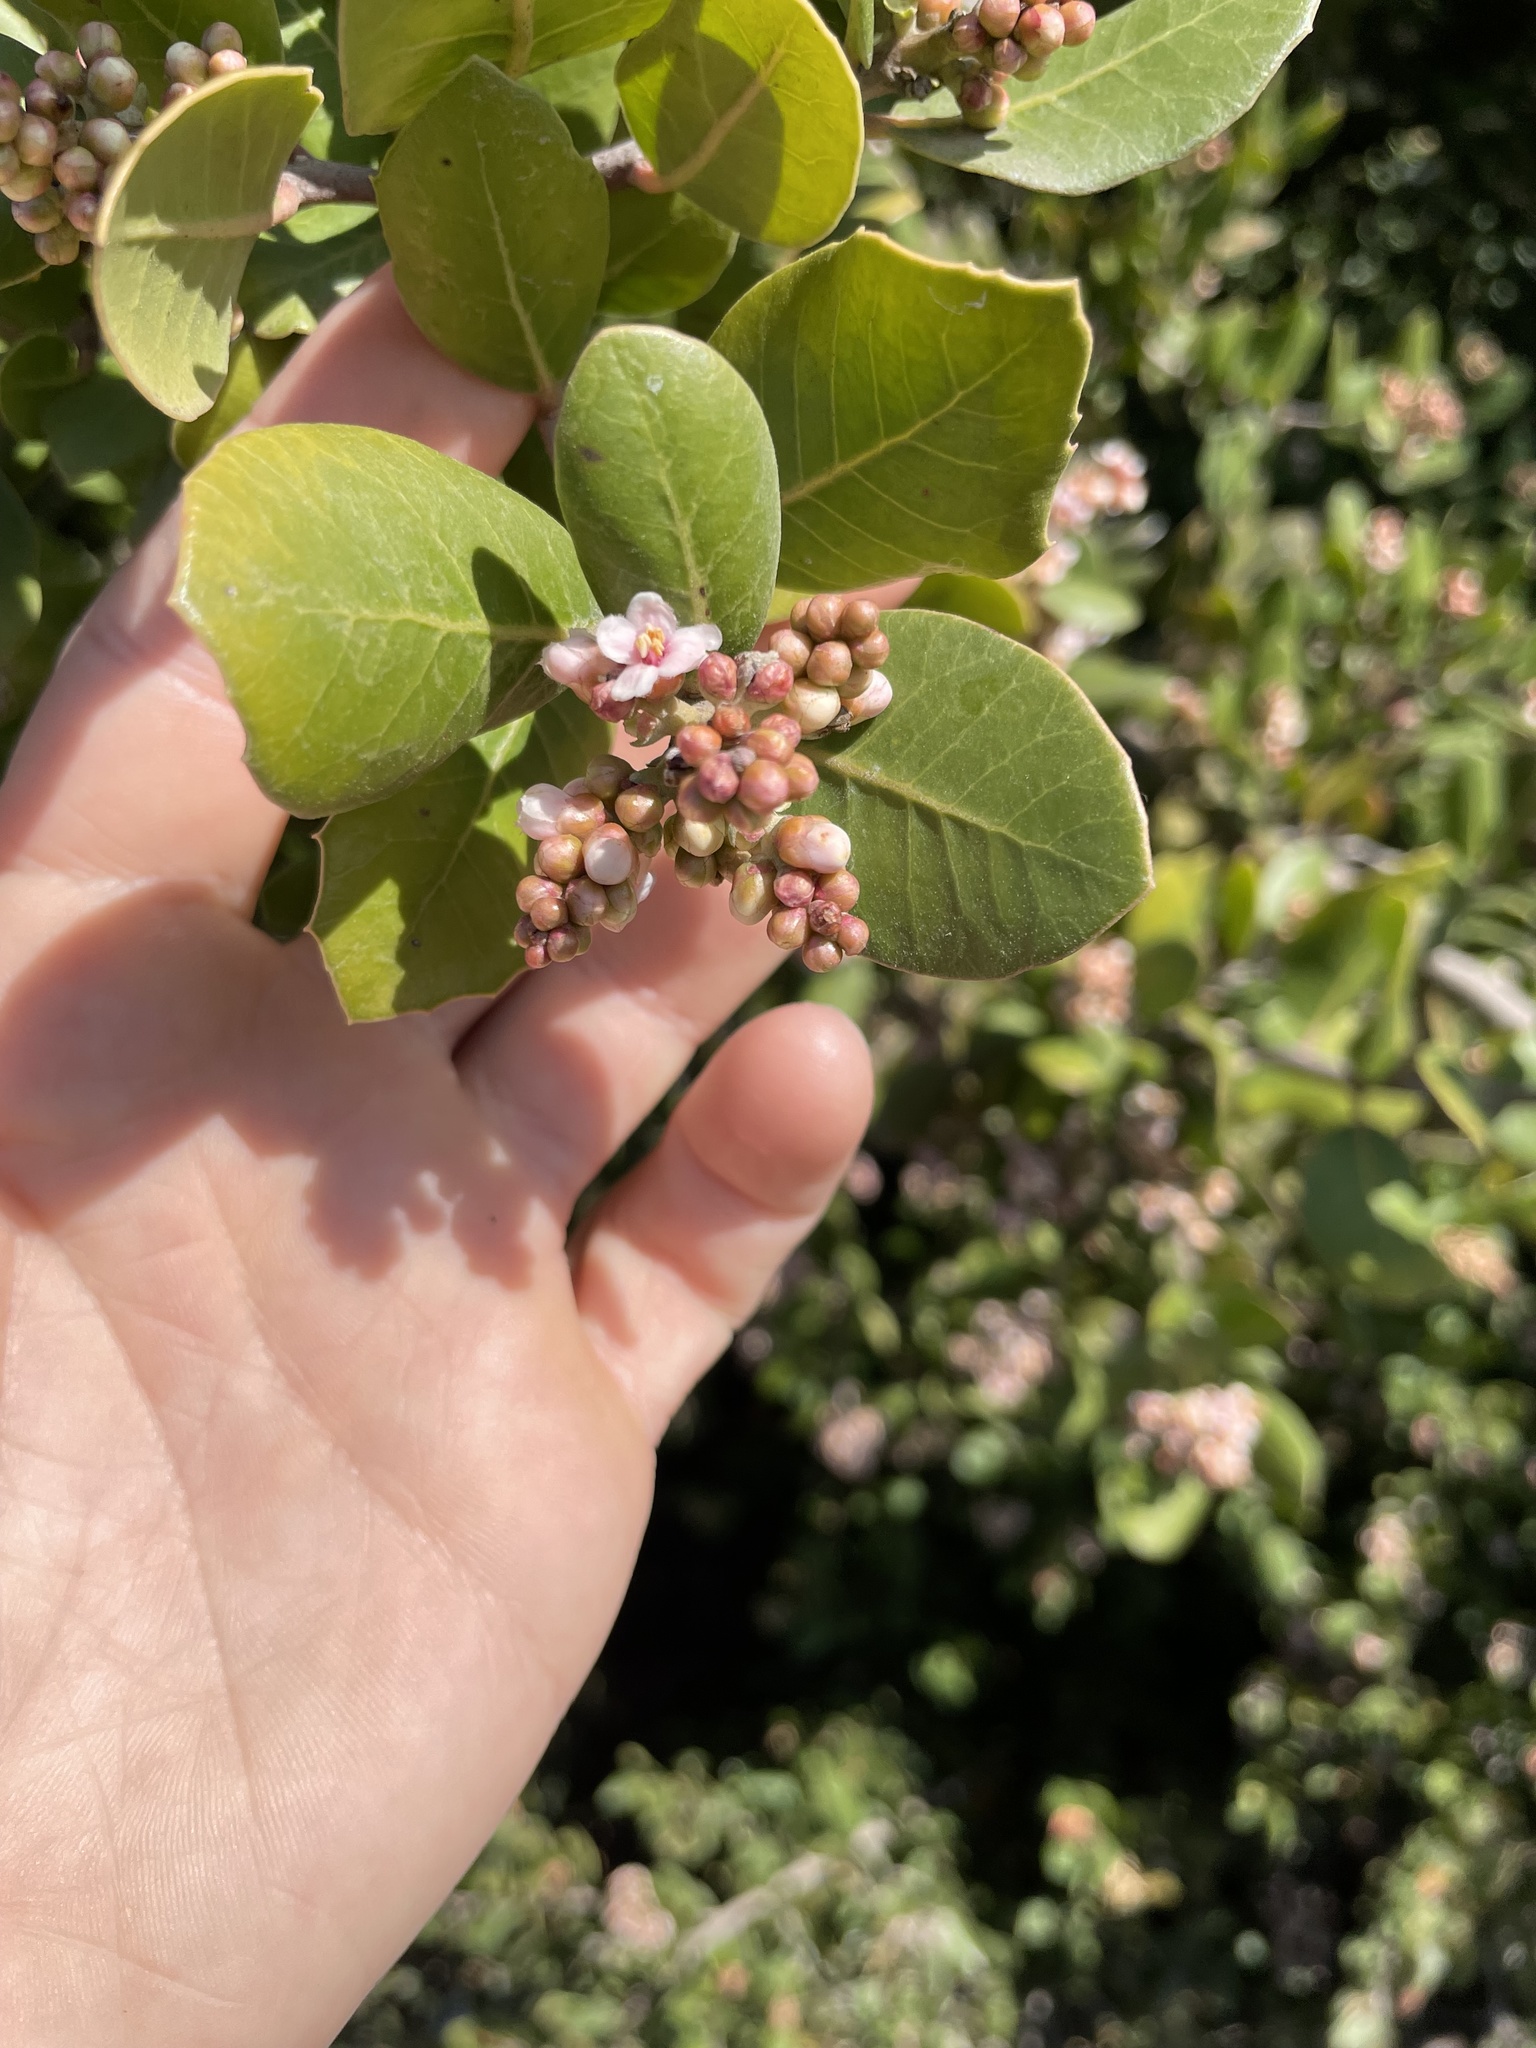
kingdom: Plantae
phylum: Tracheophyta
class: Magnoliopsida
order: Sapindales
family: Anacardiaceae
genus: Rhus
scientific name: Rhus integrifolia
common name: Lemonade sumac
